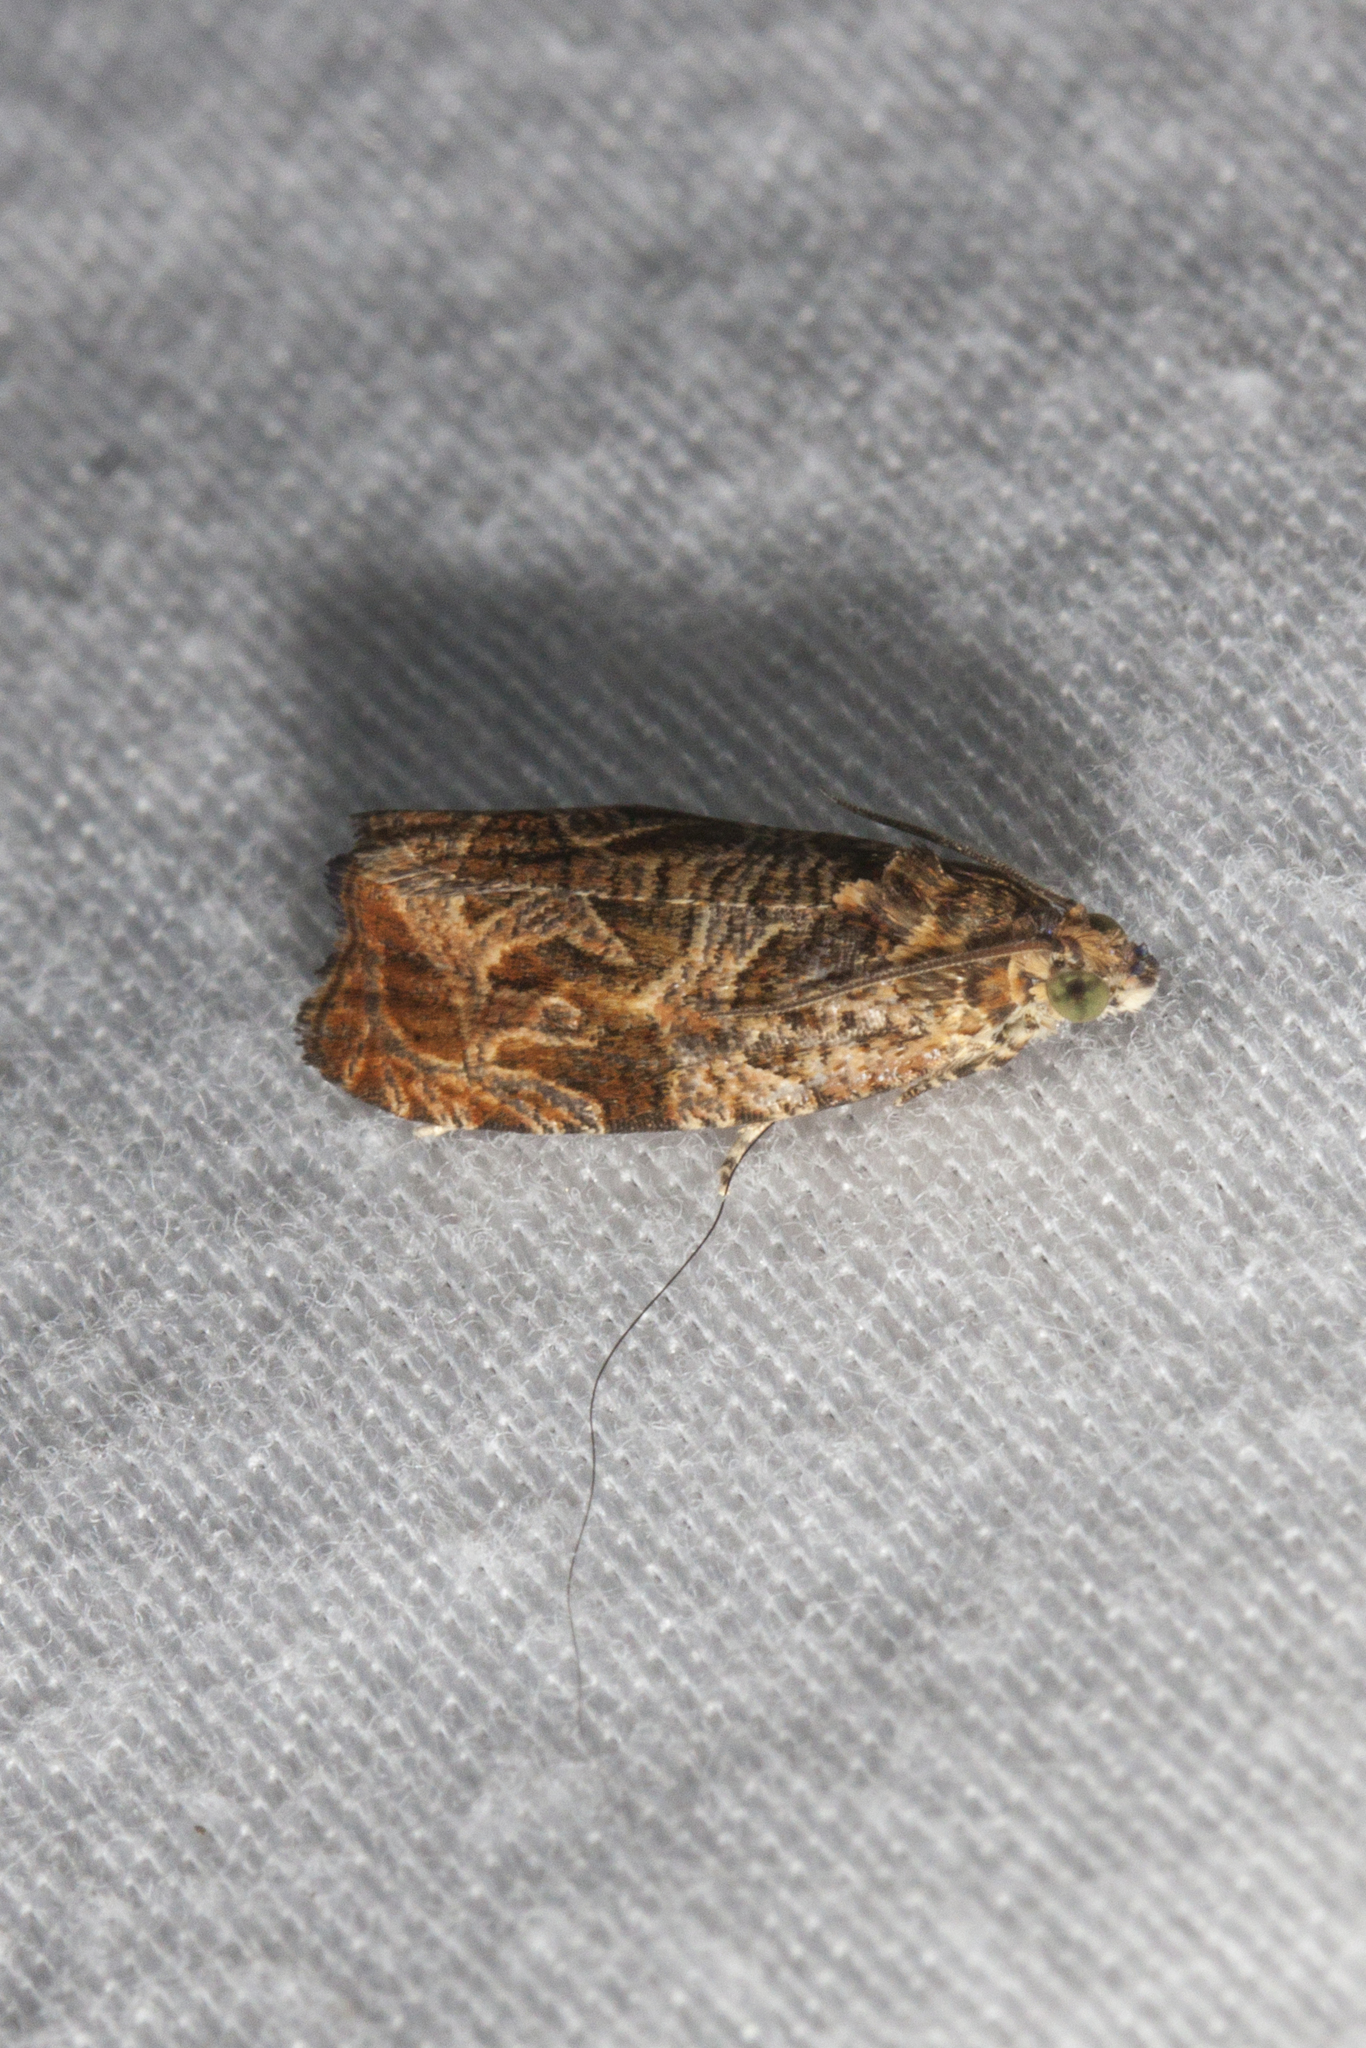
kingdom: Animalia
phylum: Arthropoda
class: Insecta
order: Lepidoptera
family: Tortricidae
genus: Olethreutes
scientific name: Olethreutes
